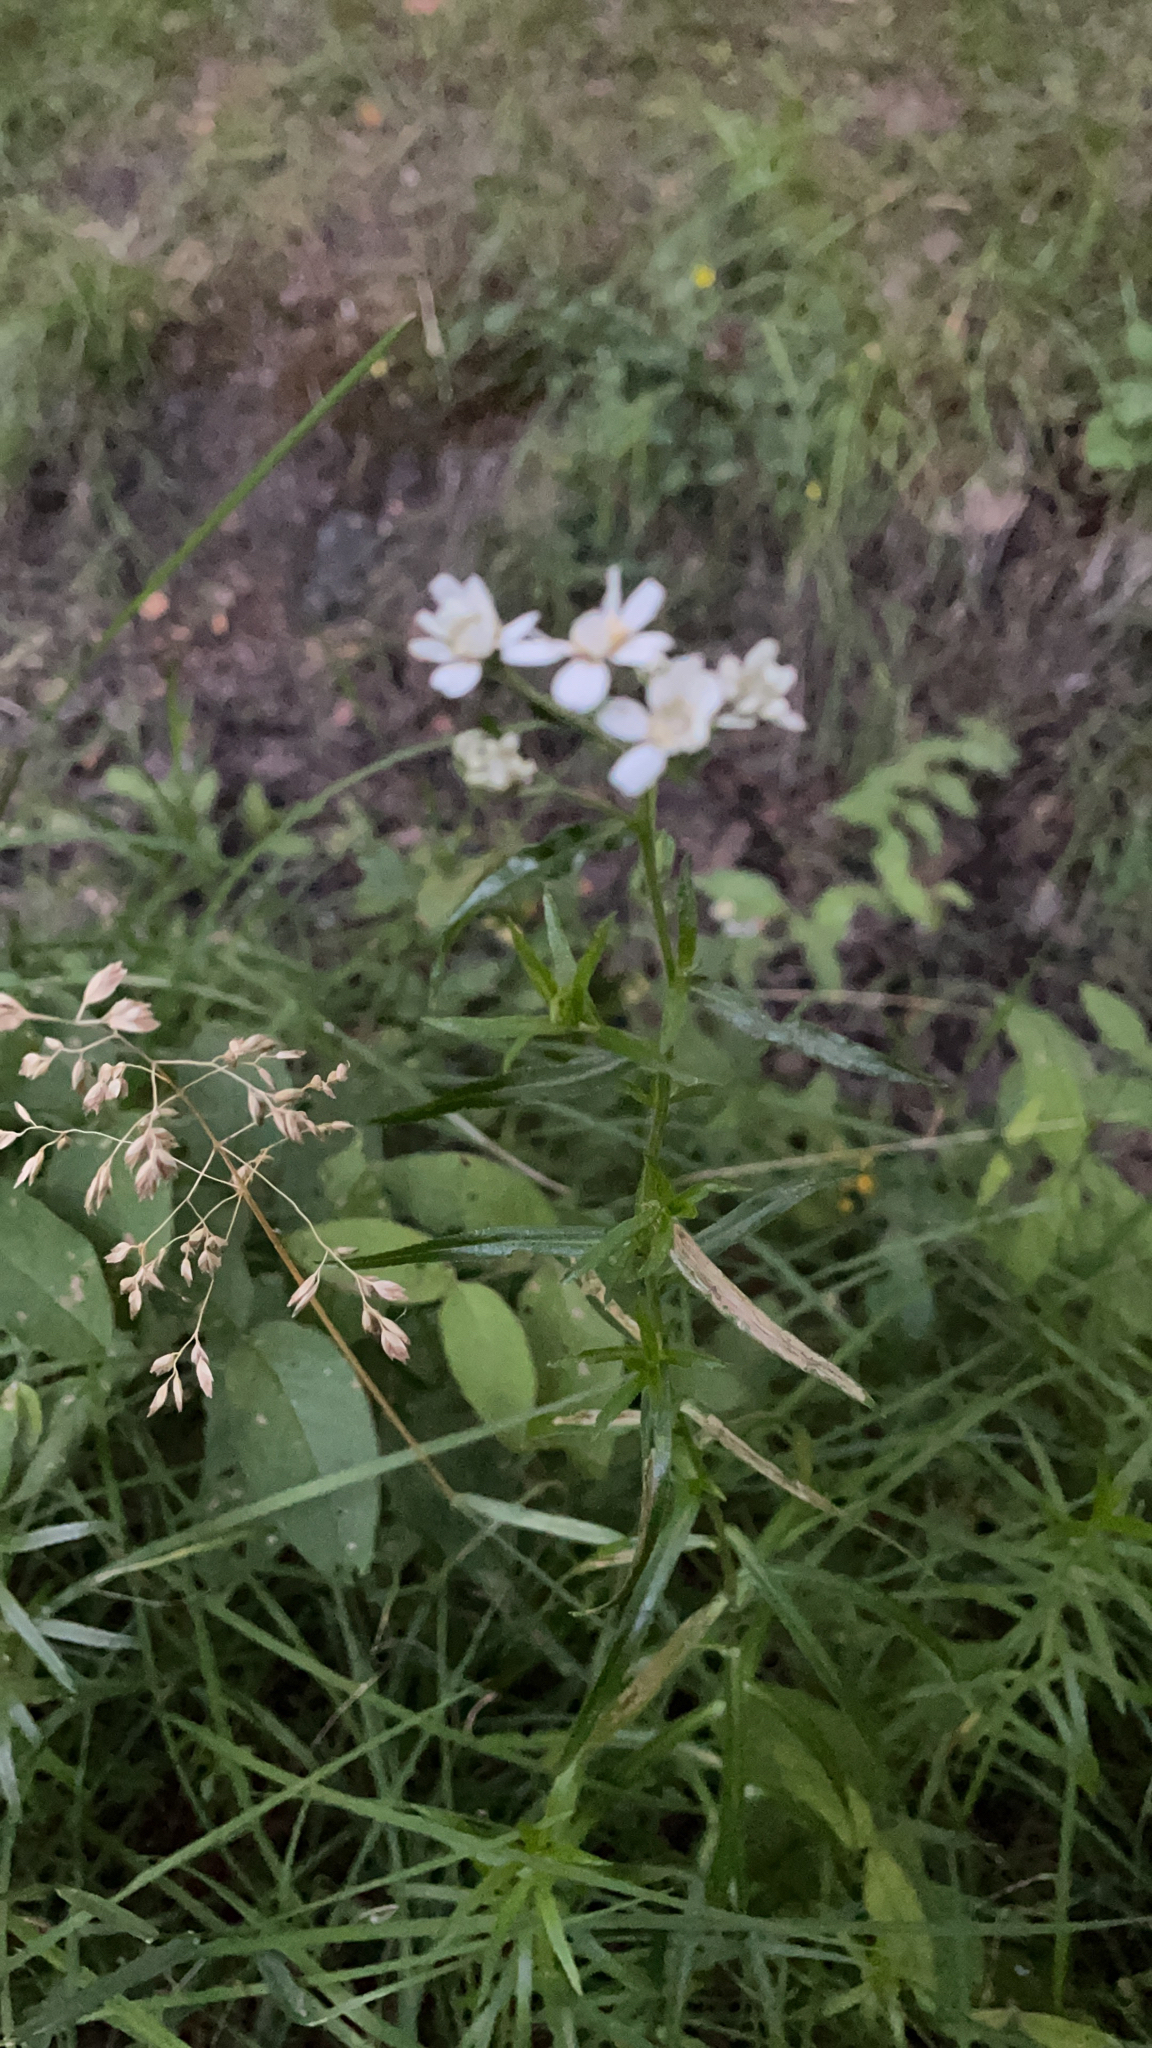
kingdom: Plantae
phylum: Tracheophyta
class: Magnoliopsida
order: Asterales
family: Asteraceae
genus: Achillea
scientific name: Achillea ptarmica
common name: Sneezeweed
